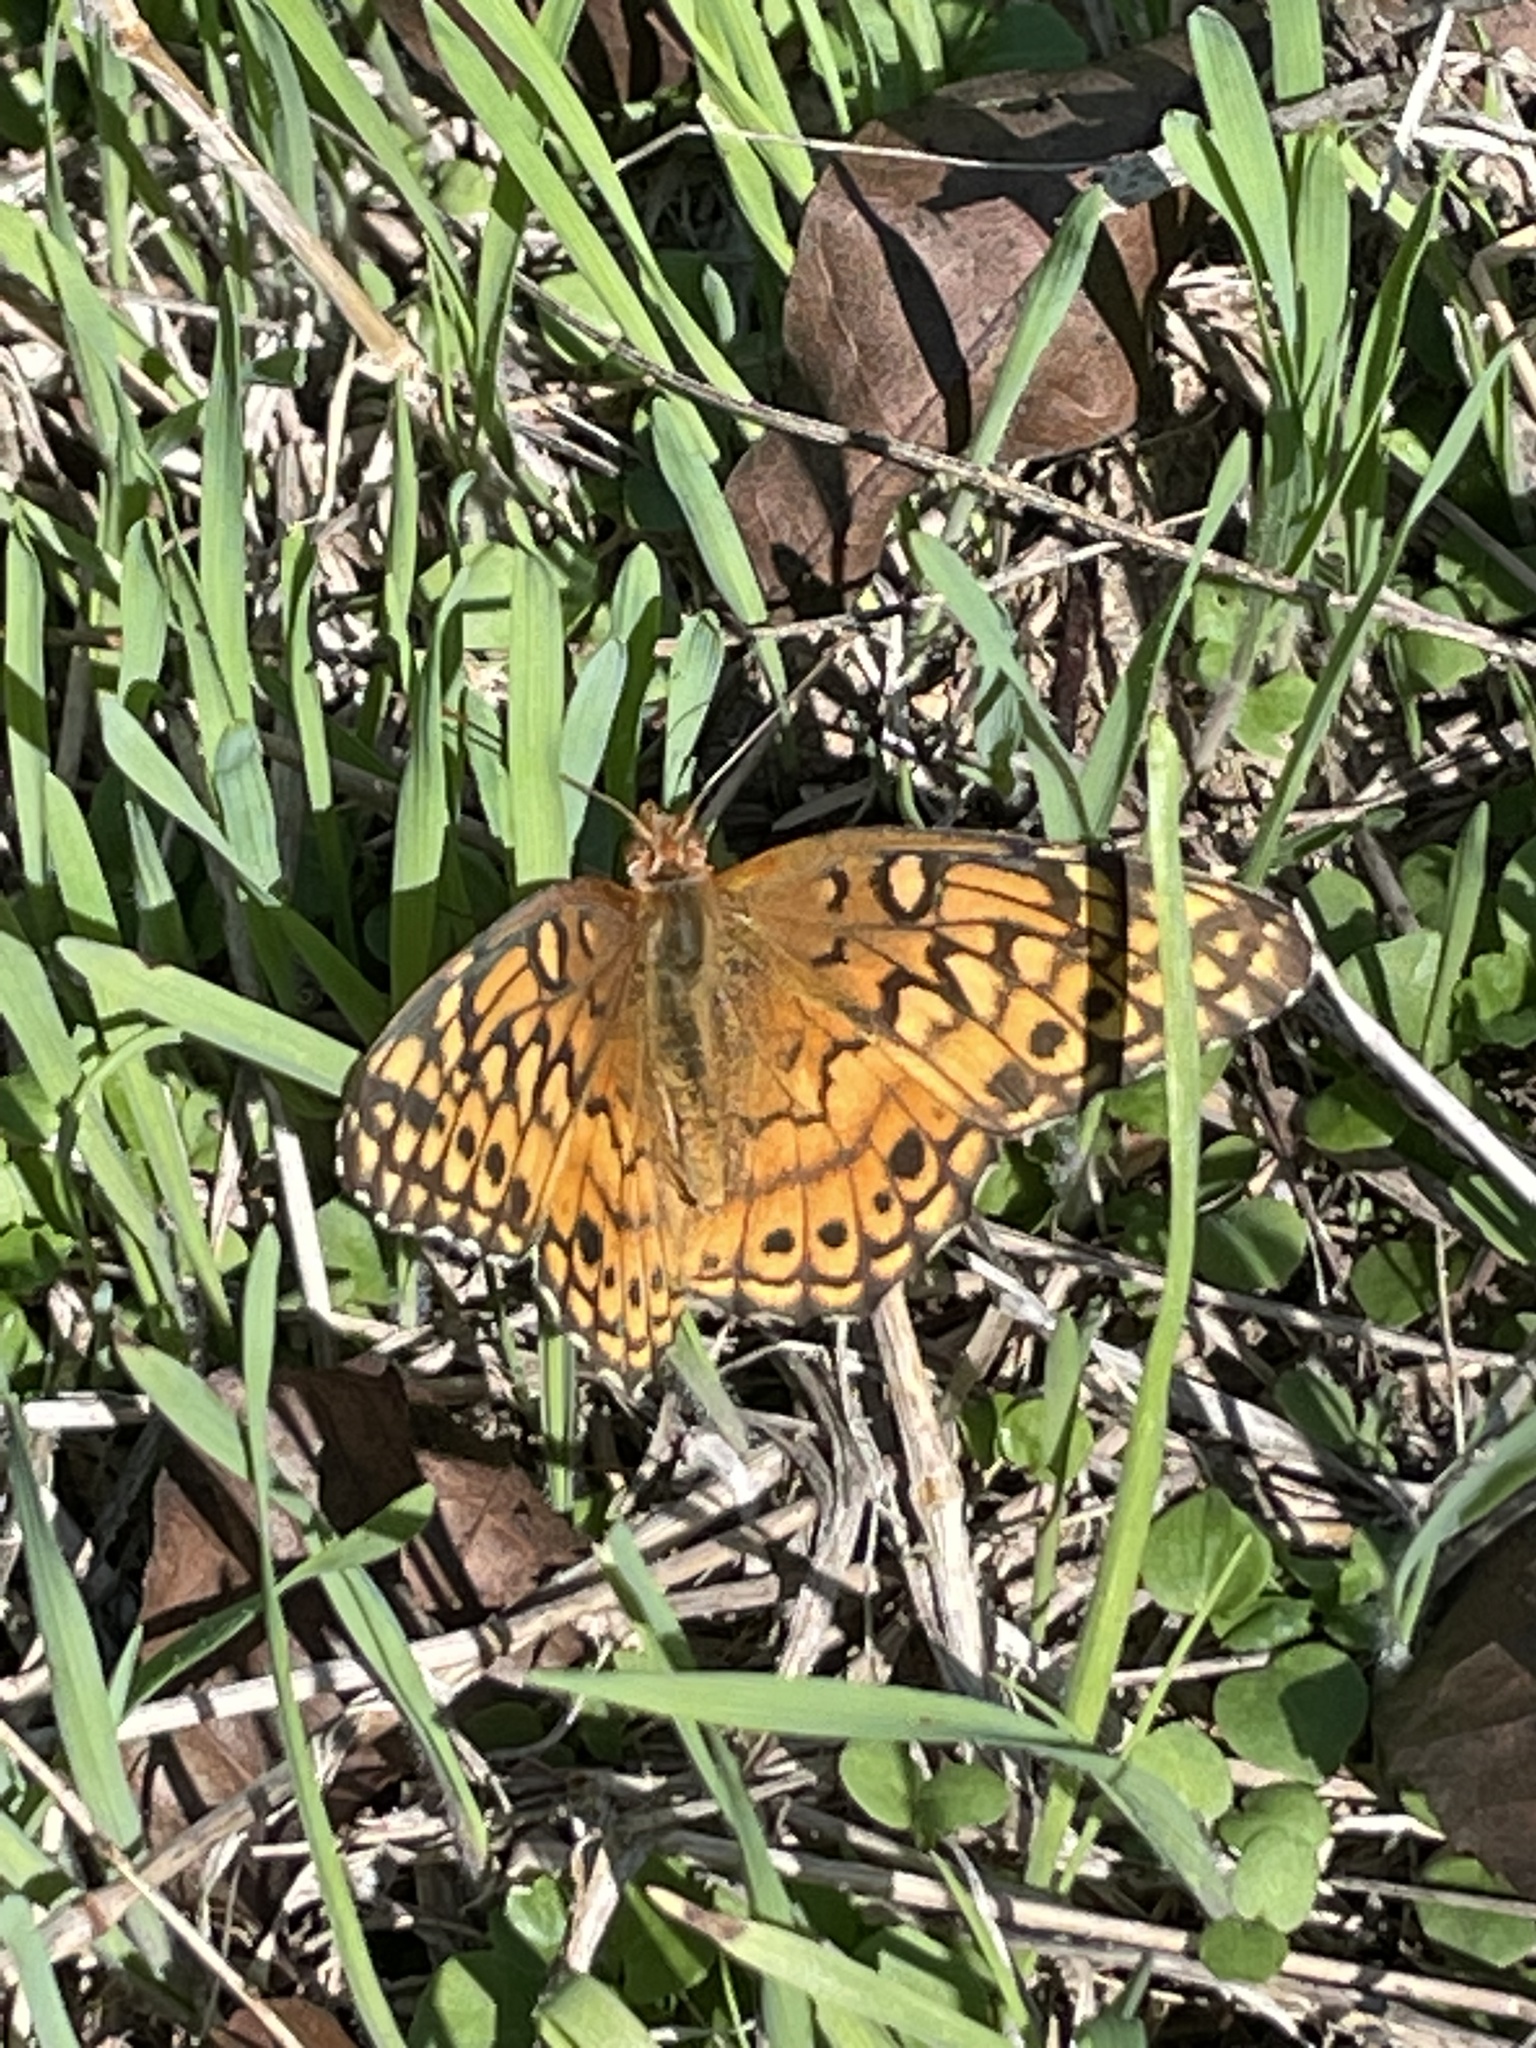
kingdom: Animalia
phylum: Arthropoda
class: Insecta
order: Lepidoptera
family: Nymphalidae
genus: Euptoieta
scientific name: Euptoieta claudia
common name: Variegated fritillary
